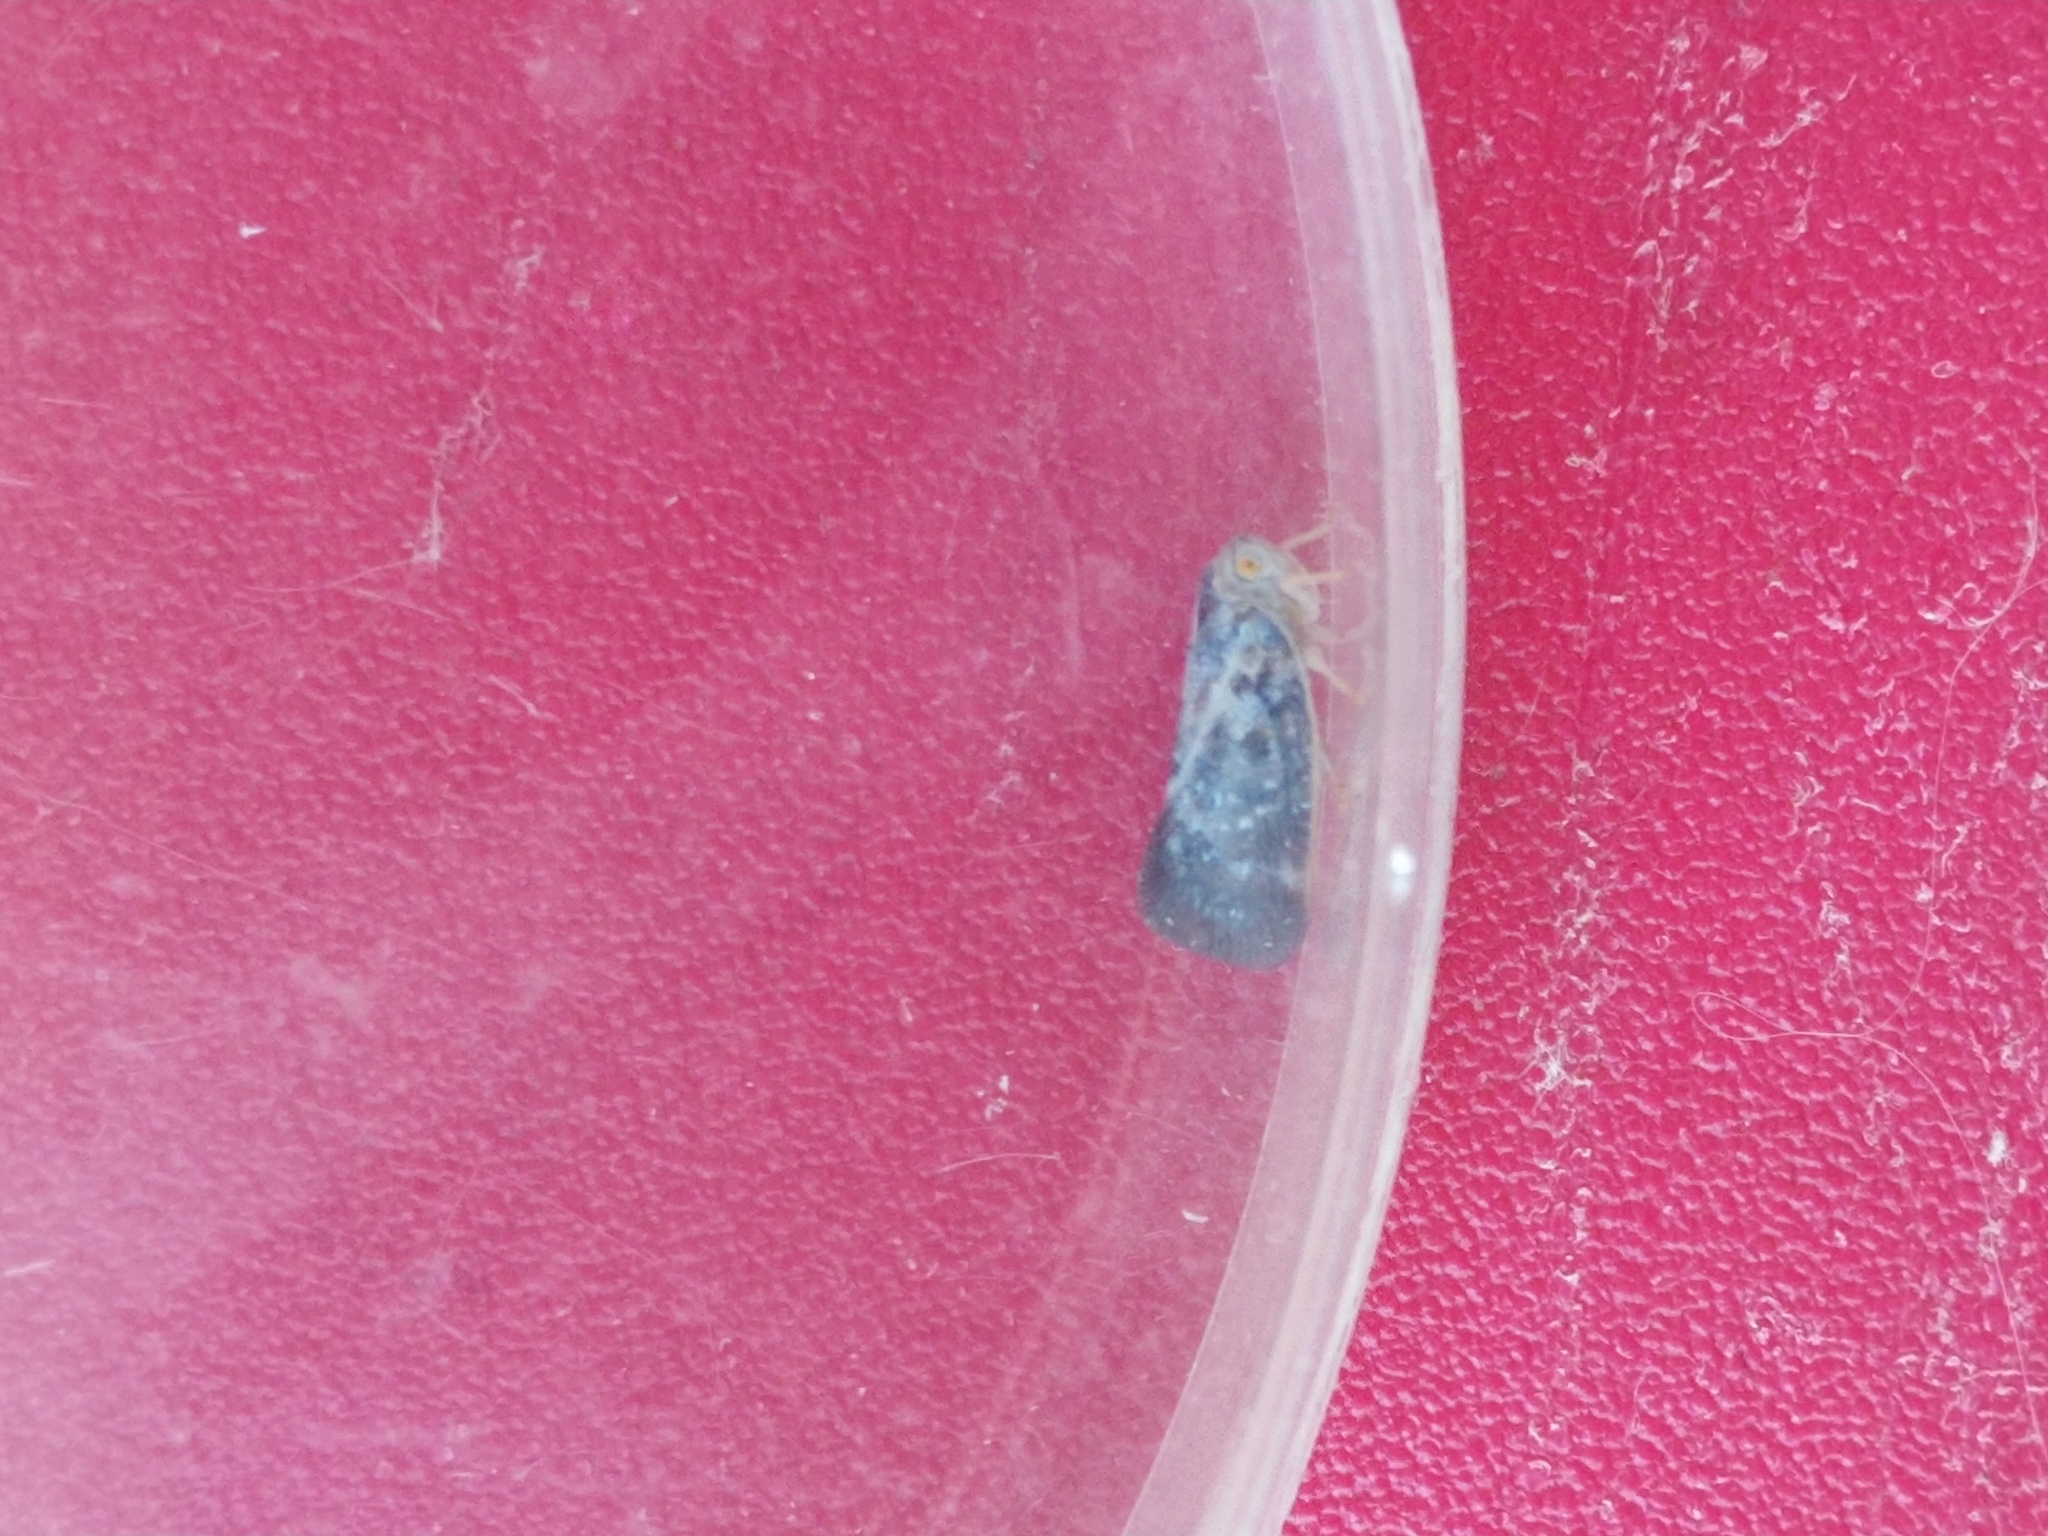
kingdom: Animalia
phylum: Arthropoda
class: Insecta
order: Hemiptera
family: Flatidae
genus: Metcalfa
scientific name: Metcalfa pruinosa
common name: Citrus flatid planthopper
